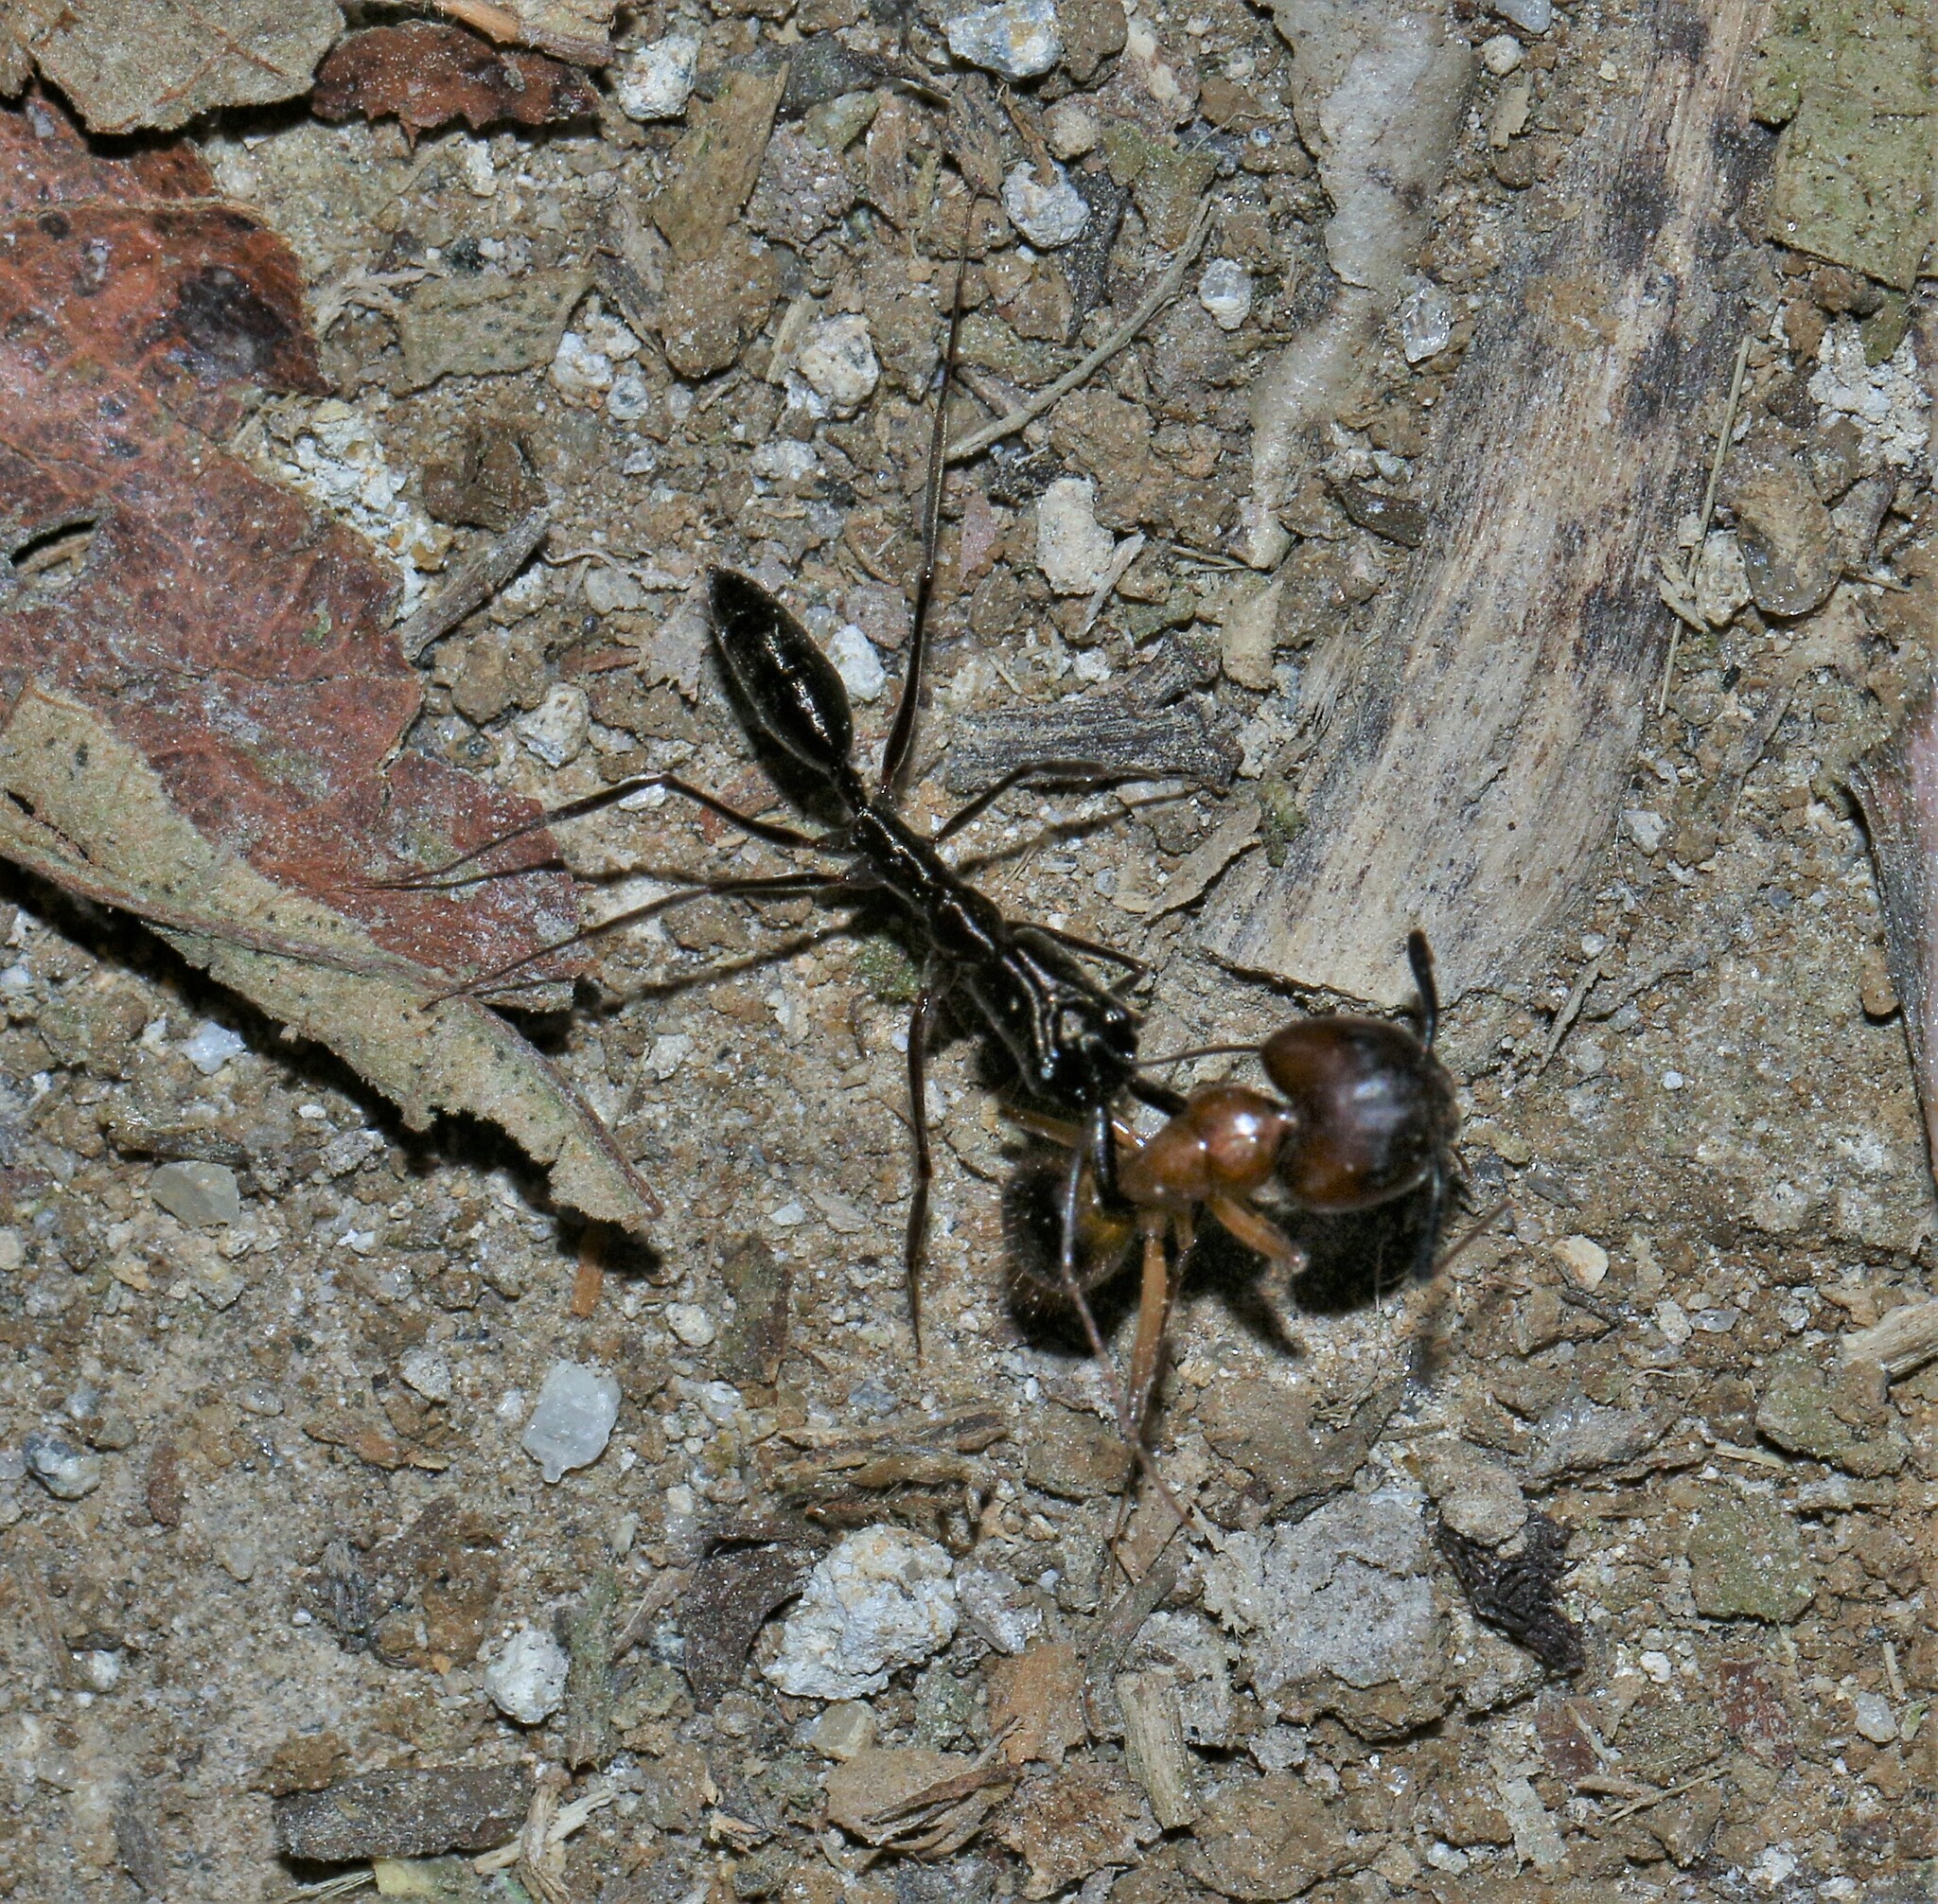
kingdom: Animalia
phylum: Arthropoda
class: Insecta
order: Hymenoptera
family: Formicidae
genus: Odontomachus
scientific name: Odontomachus chelifer
